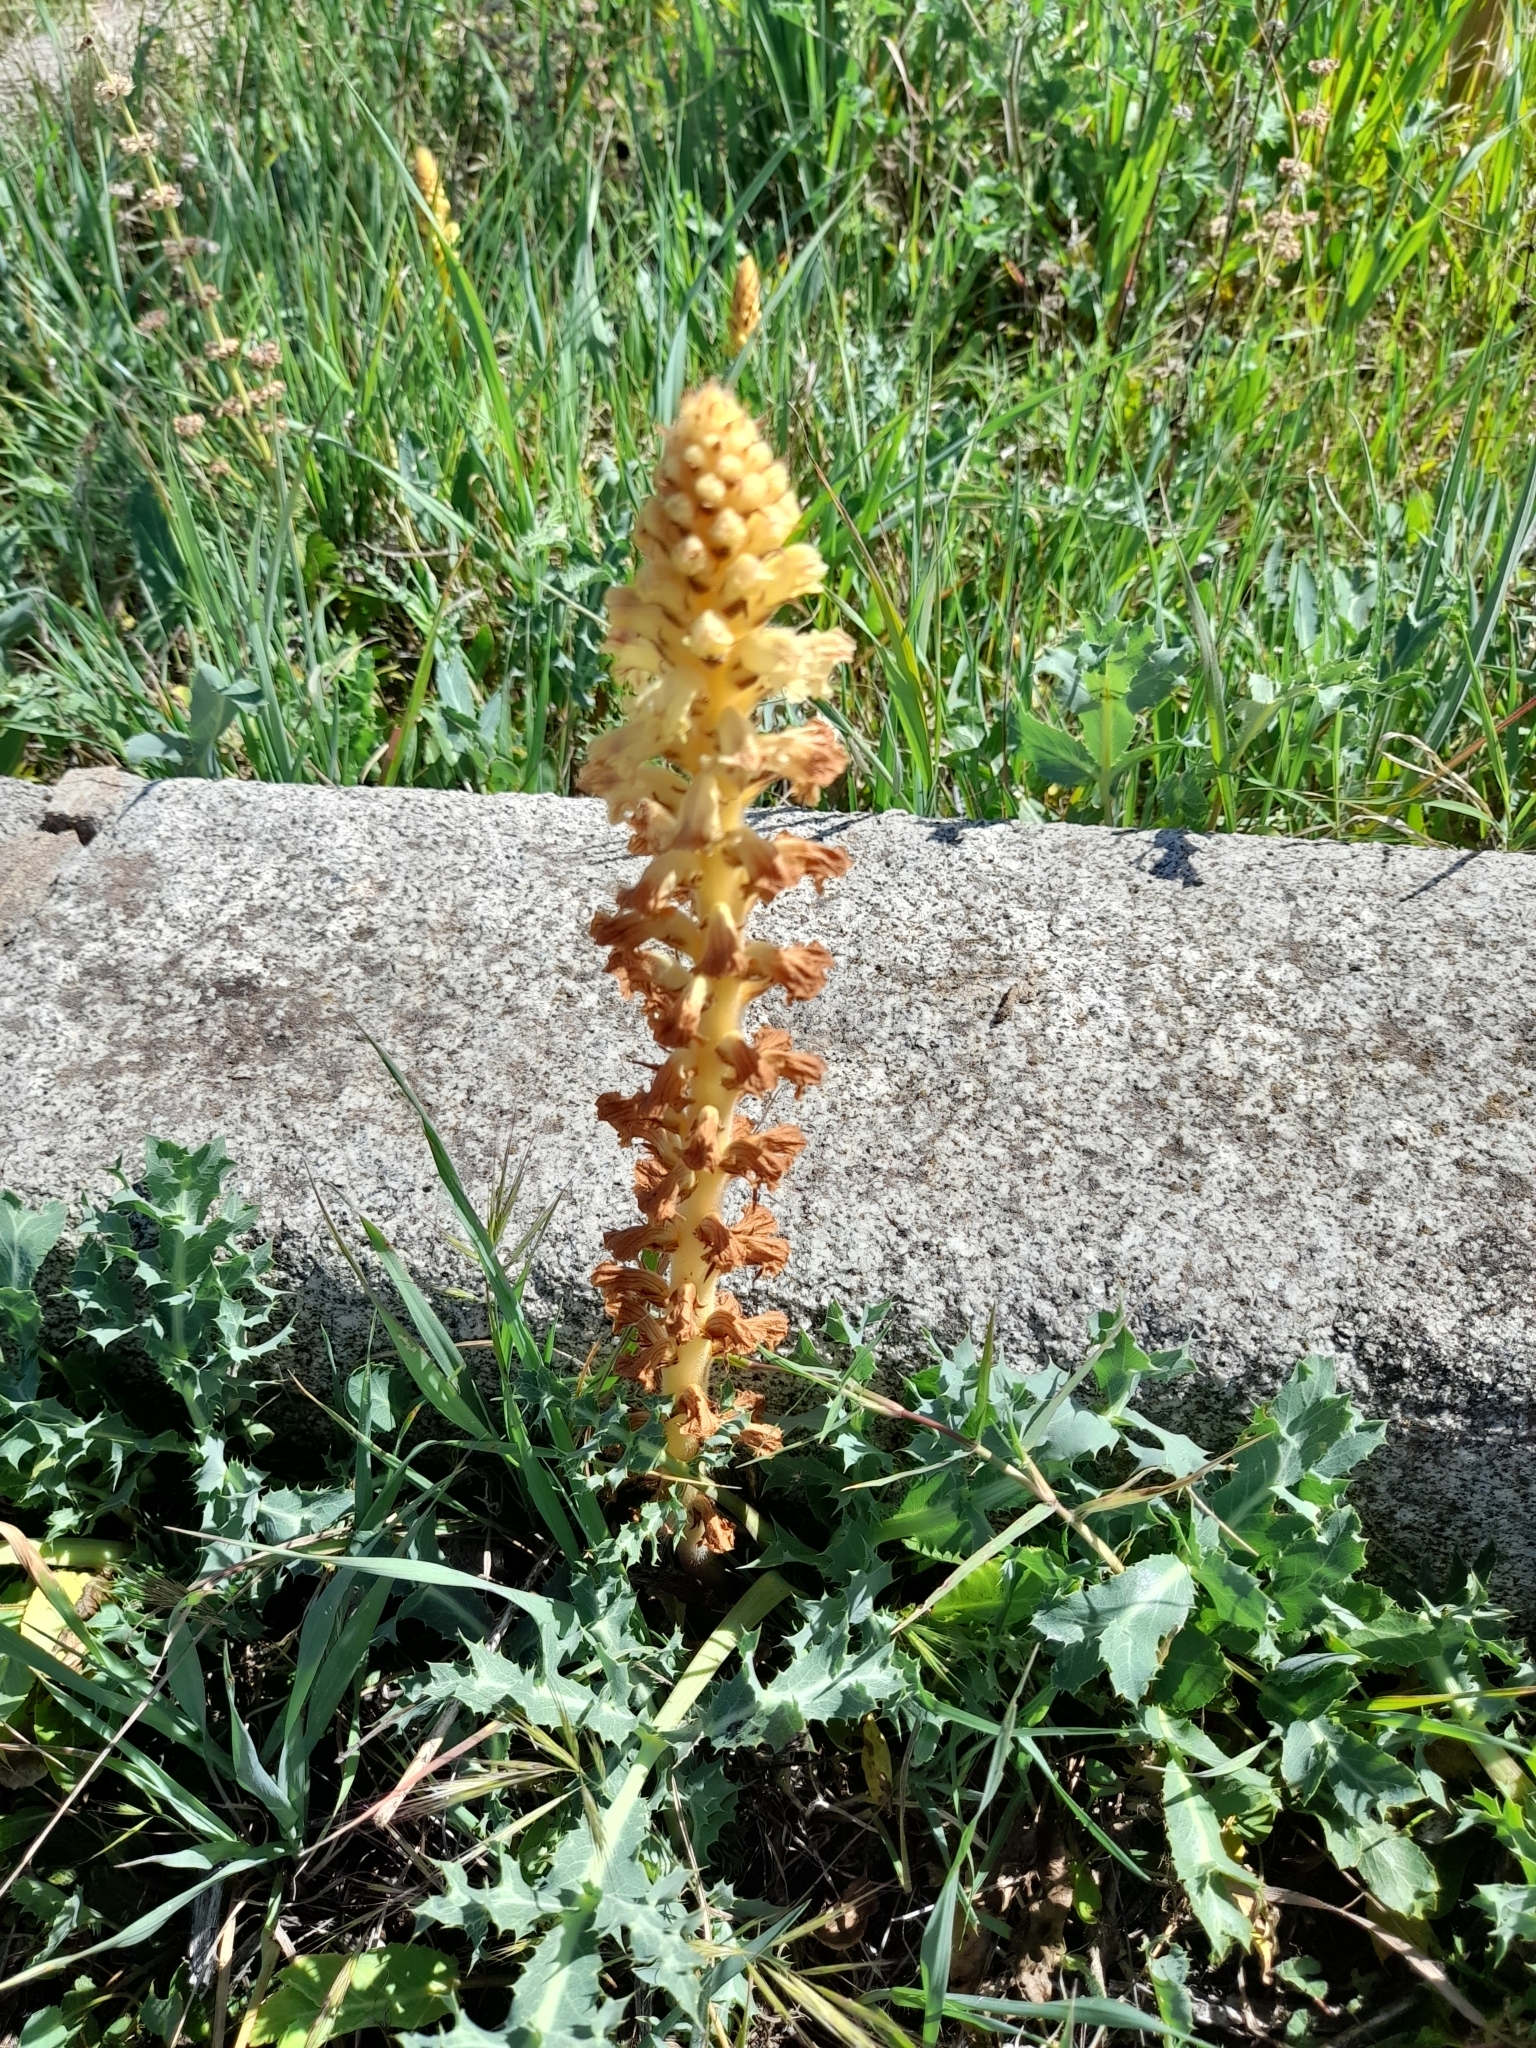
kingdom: Plantae
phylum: Tracheophyta
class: Magnoliopsida
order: Lamiales
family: Orobanchaceae
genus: Orobanche
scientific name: Orobanche amethystea
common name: Amethyst broomrape
